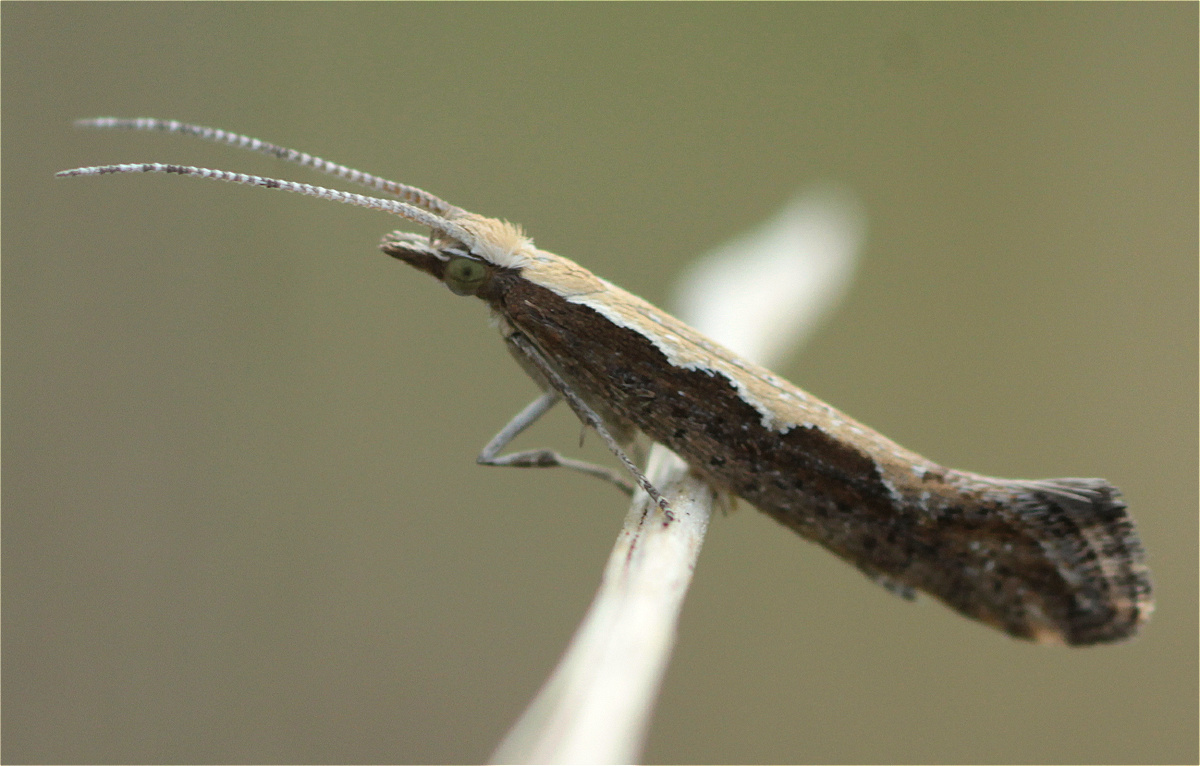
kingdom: Animalia
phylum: Arthropoda
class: Insecta
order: Lepidoptera
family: Plutellidae
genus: Plutella
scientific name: Plutella xylostella
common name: Diamond-back moth
